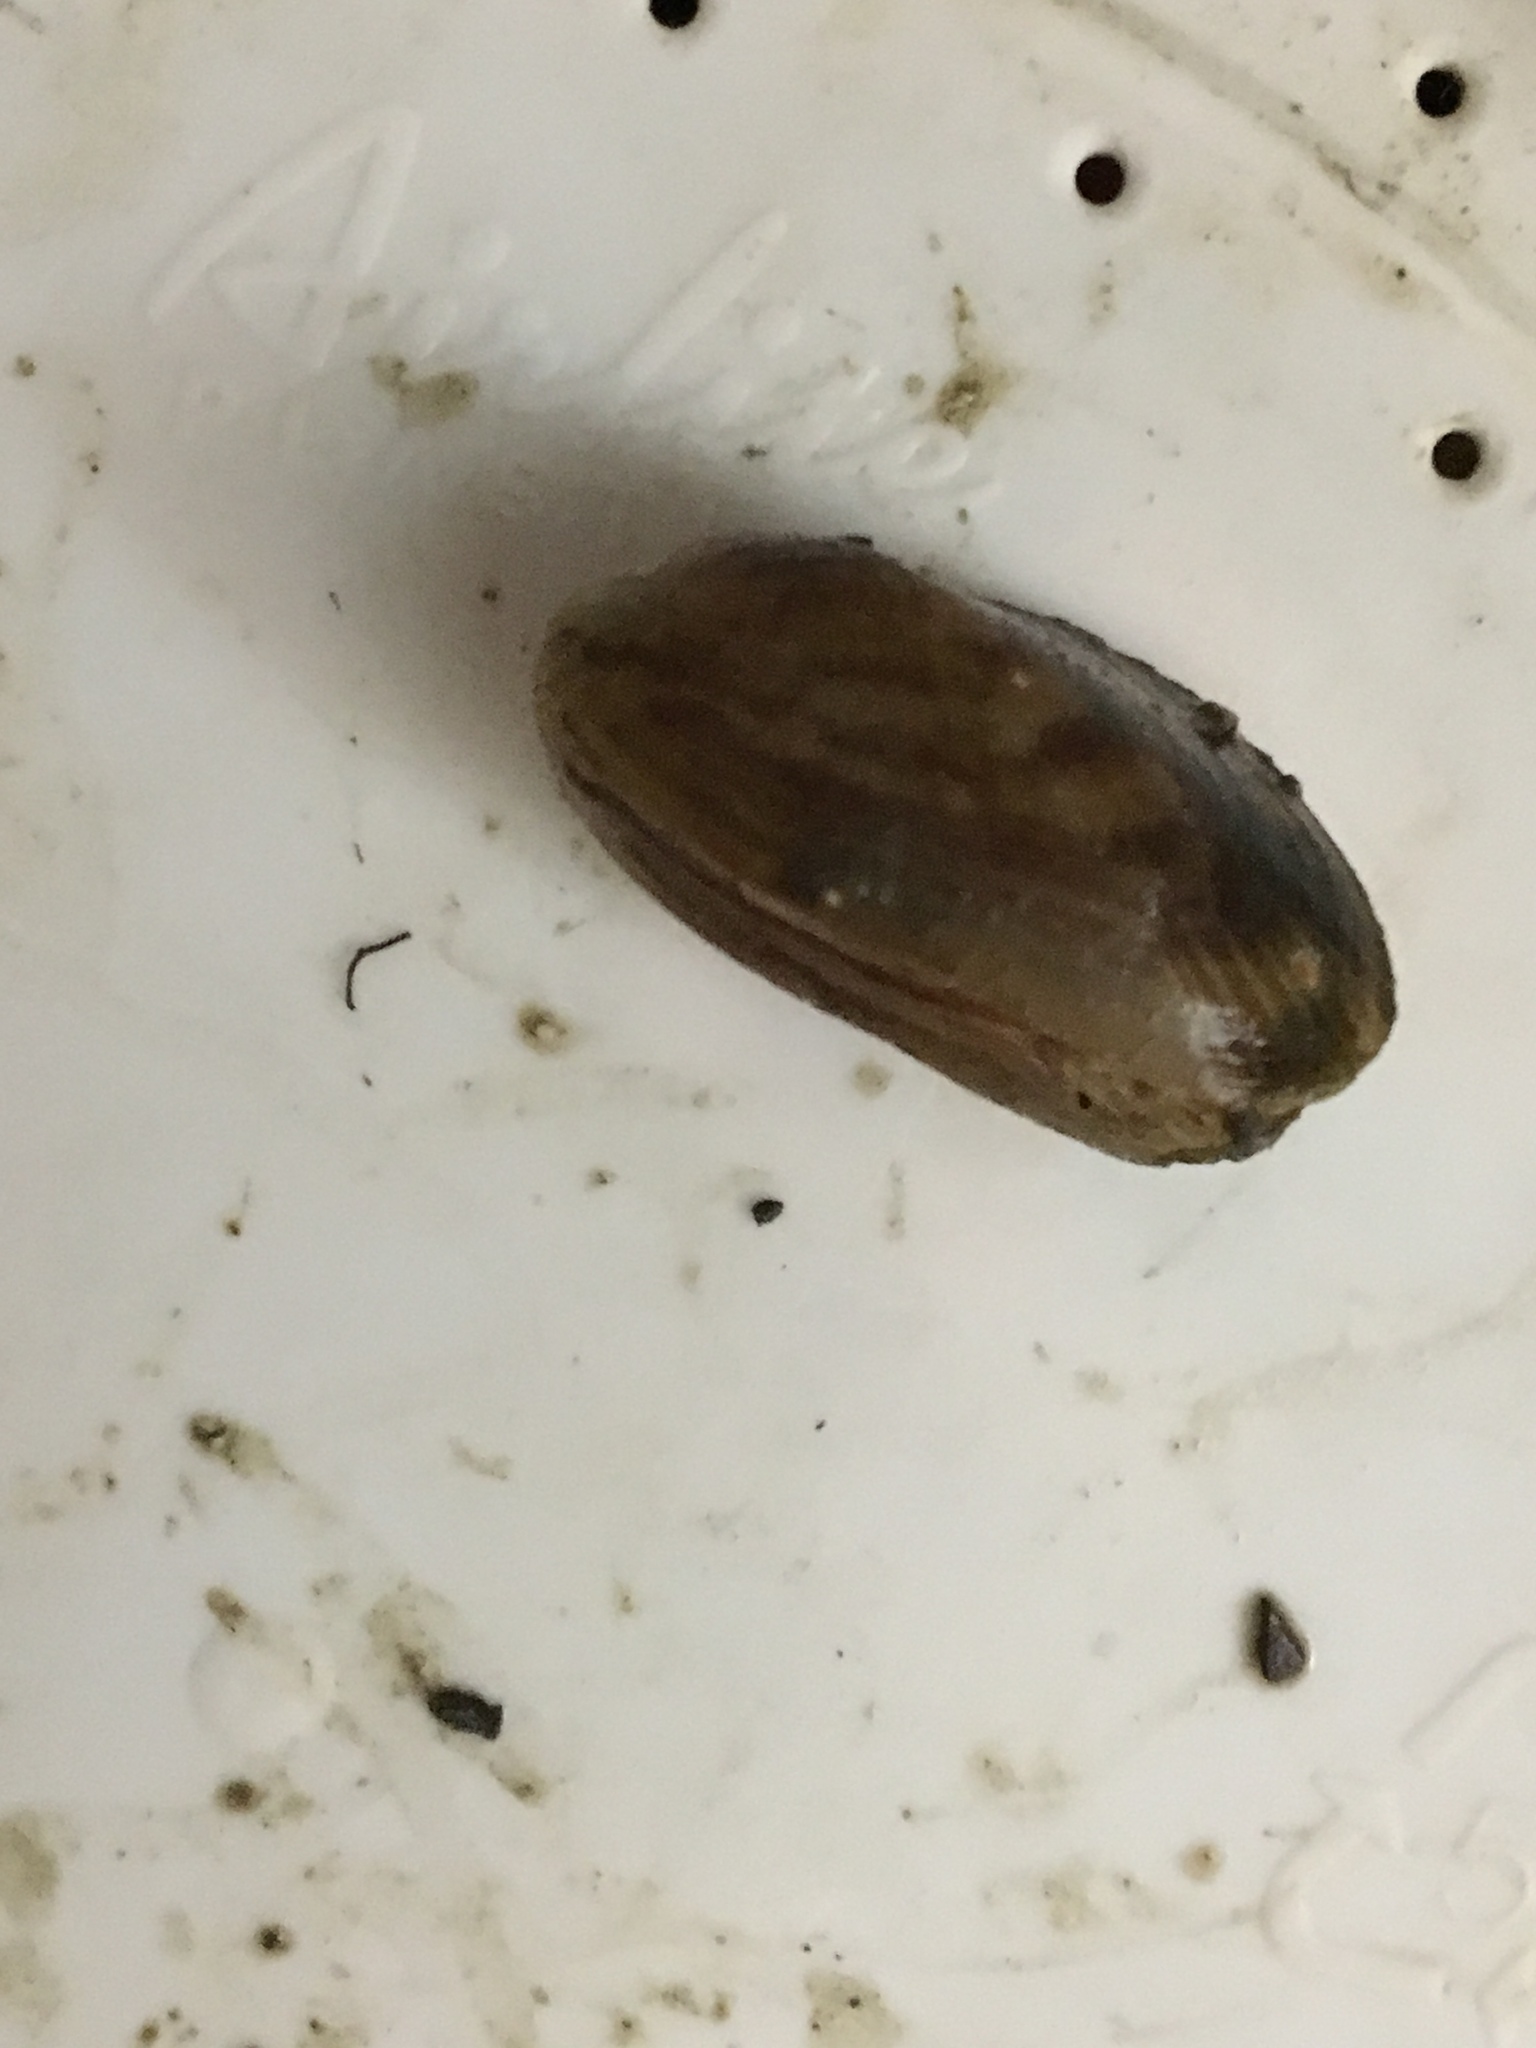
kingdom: Animalia
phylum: Mollusca
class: Bivalvia
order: Mytilida
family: Mytilidae
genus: Arcuatula
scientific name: Arcuatula senhousia
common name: Asian mussel
